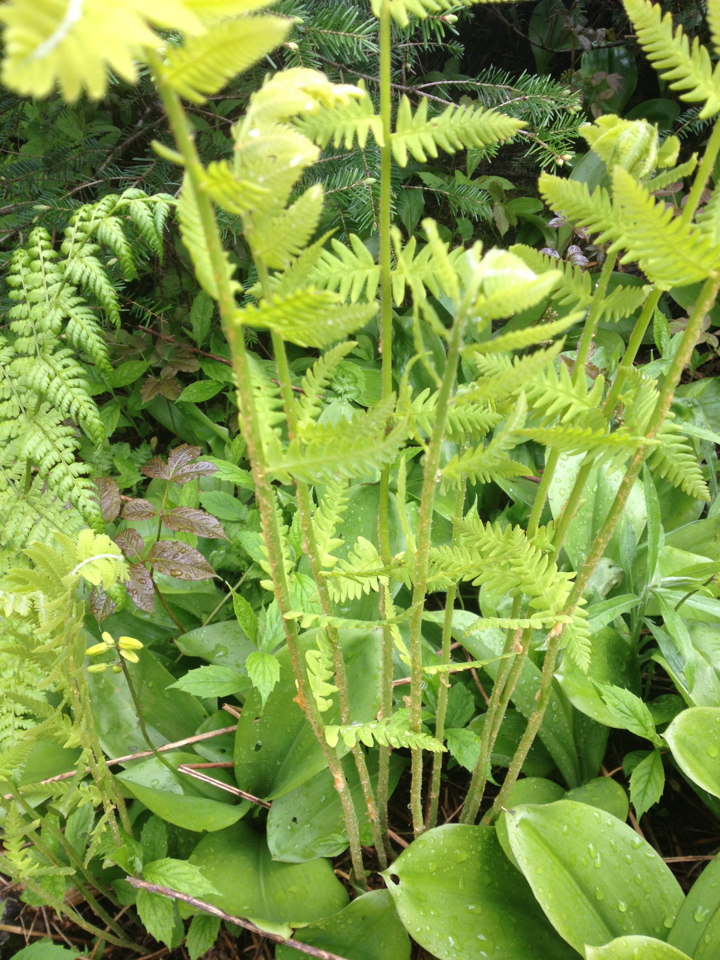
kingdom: Plantae
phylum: Tracheophyta
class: Polypodiopsida
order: Osmundales
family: Osmundaceae
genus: Osmundastrum
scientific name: Osmundastrum cinnamomeum
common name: Cinnamon fern
